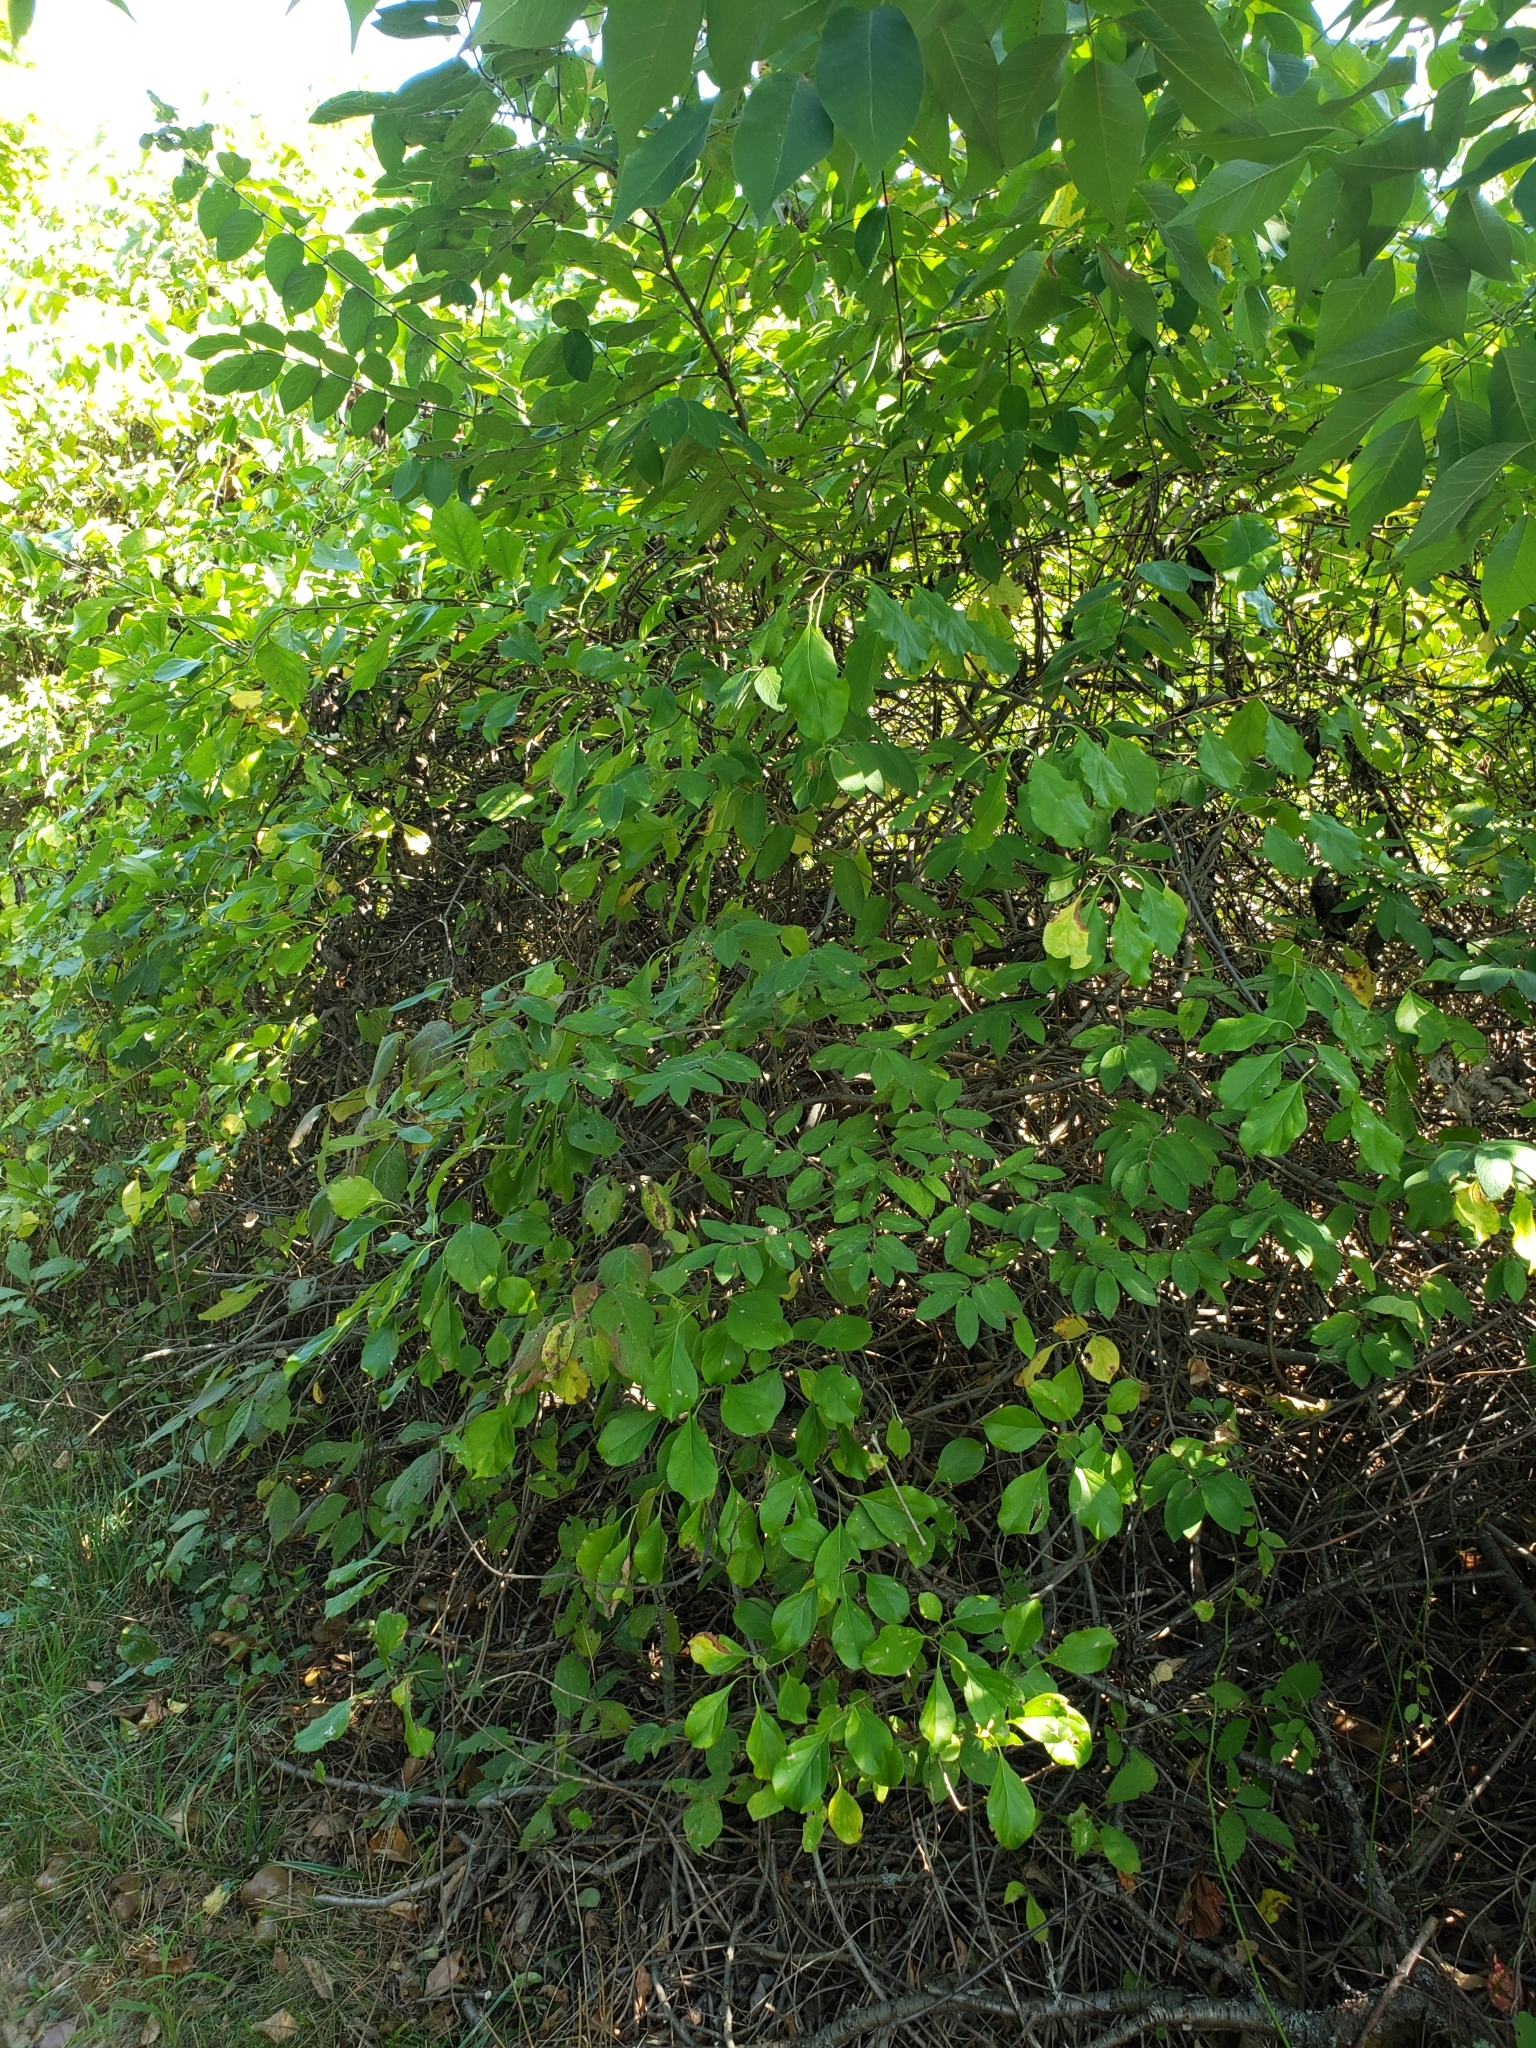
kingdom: Fungi
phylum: Basidiomycota
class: Agaricomycetes
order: Boletales
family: Boletinellaceae
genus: Boletinellus
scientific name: Boletinellus merulioides
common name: Ash tree bolete
